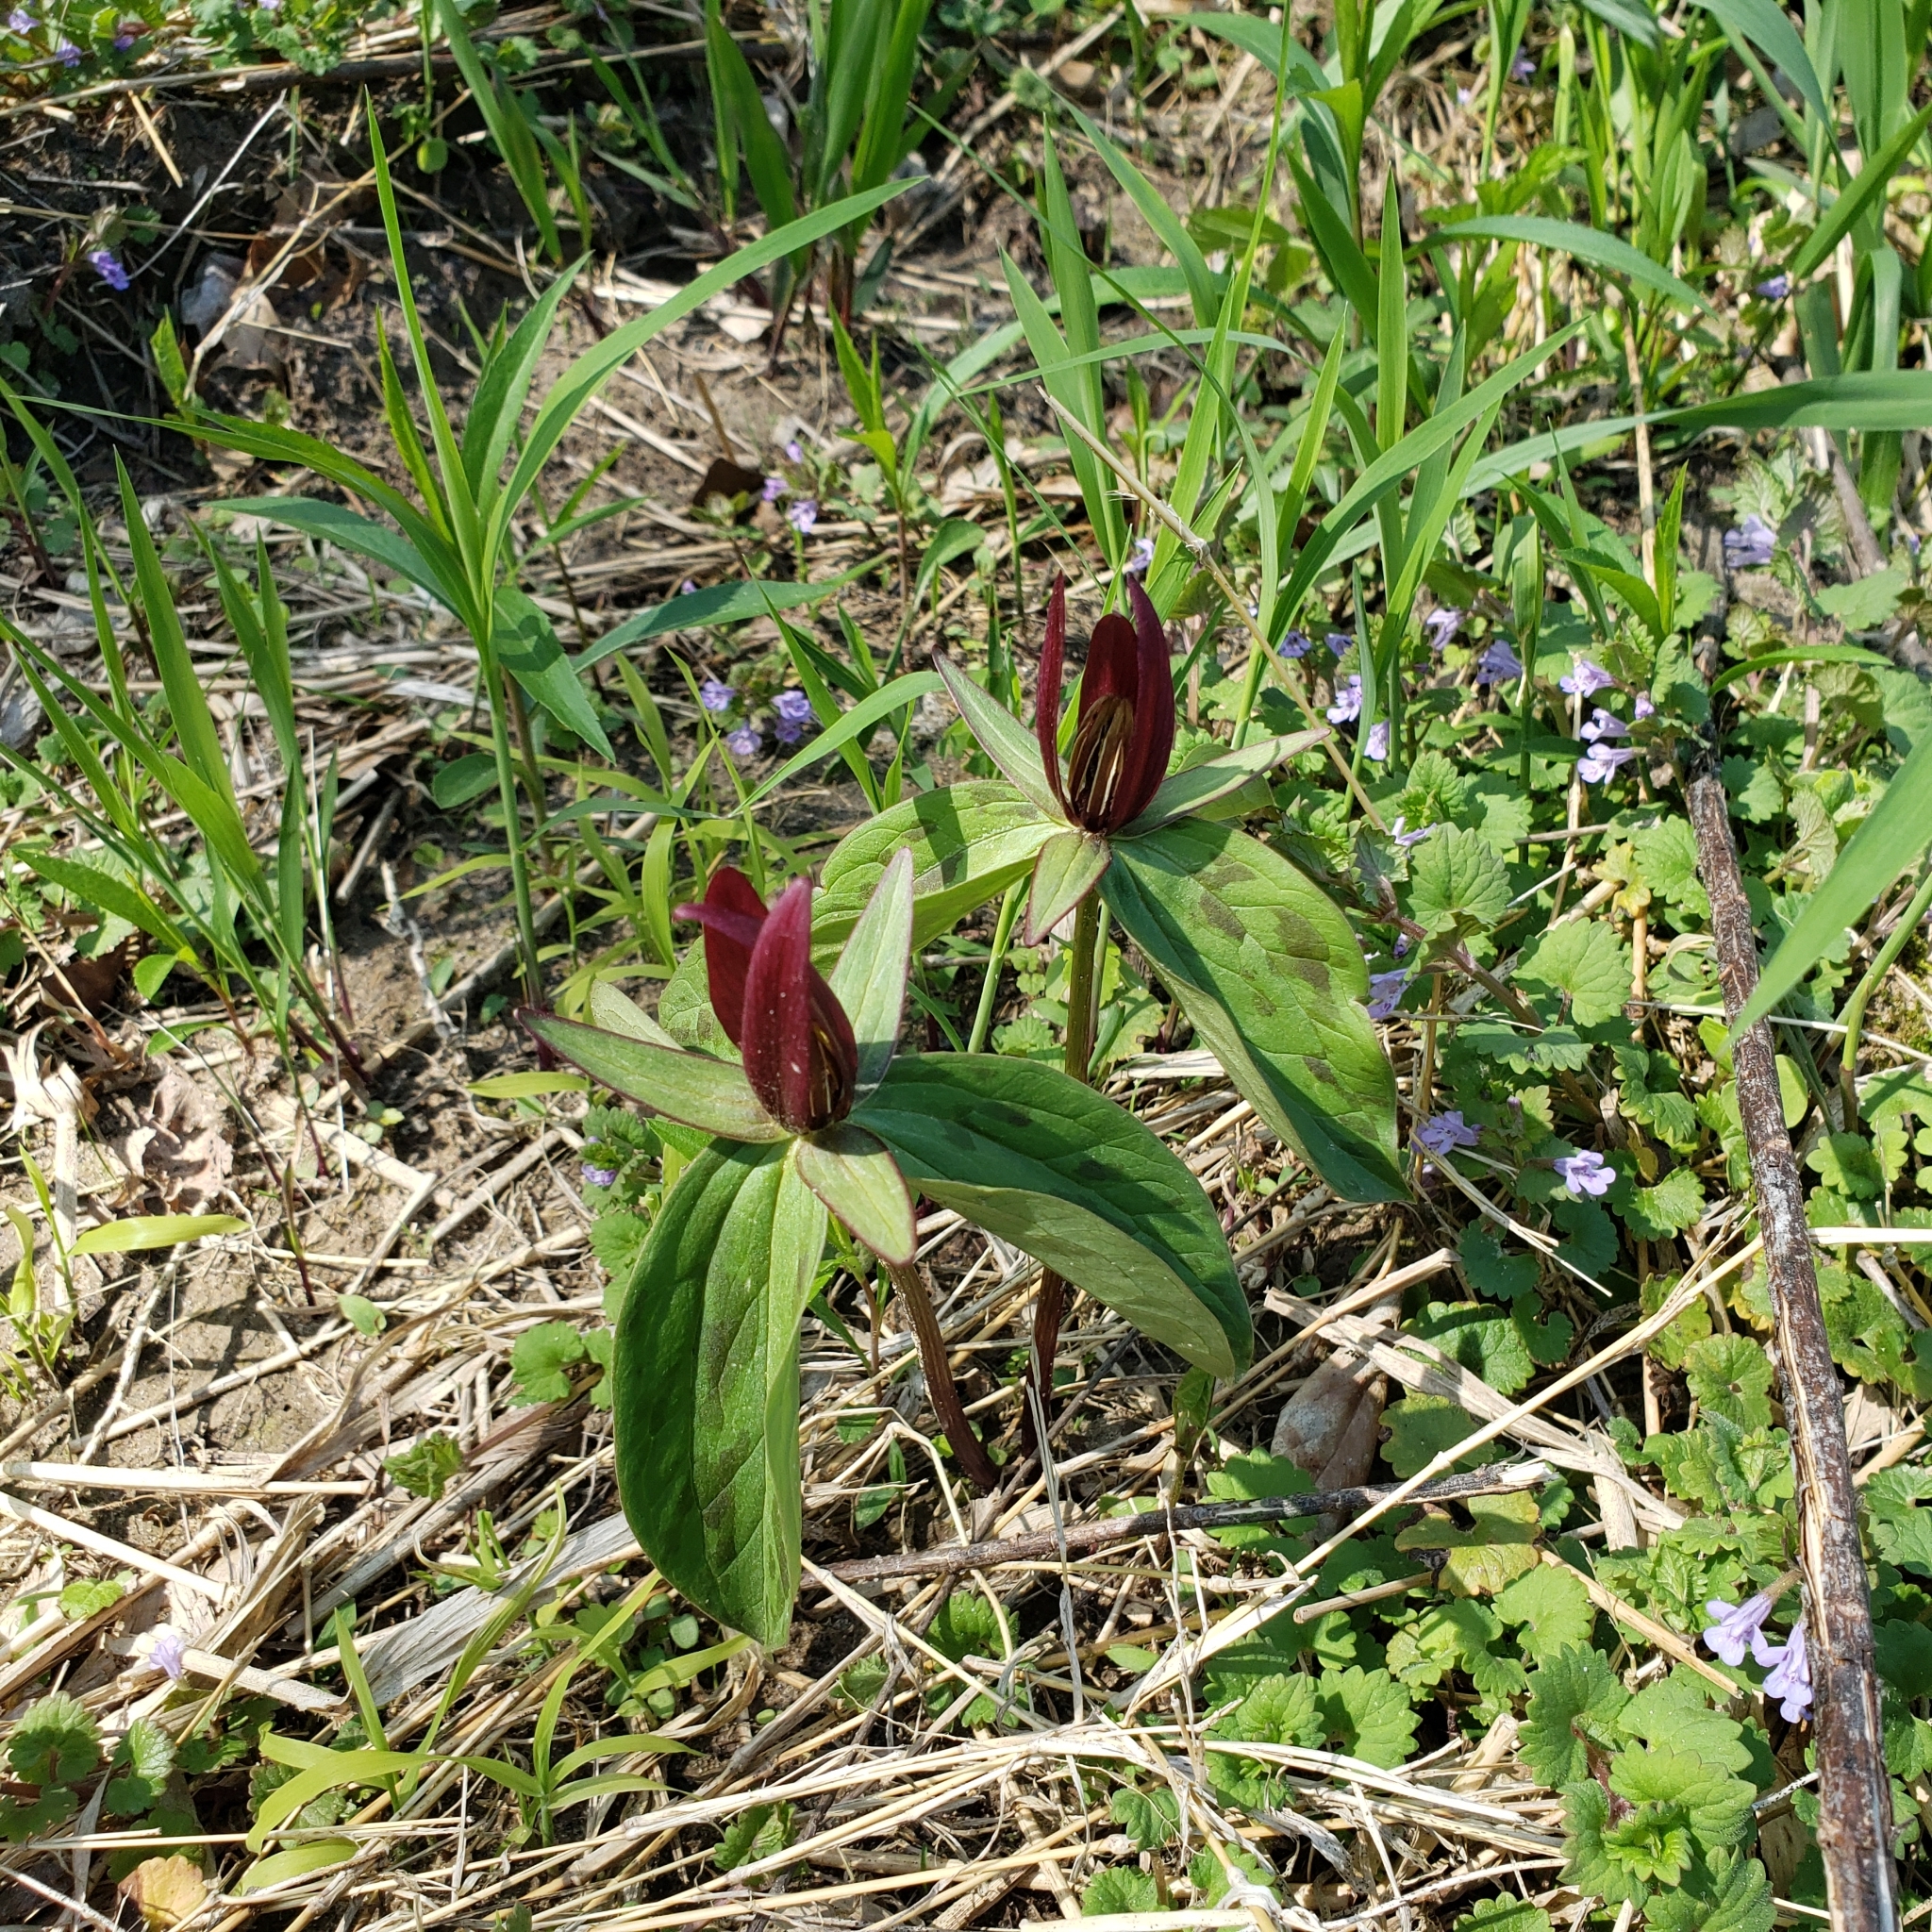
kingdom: Plantae
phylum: Tracheophyta
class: Liliopsida
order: Liliales
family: Melanthiaceae
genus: Trillium
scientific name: Trillium sessile
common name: Sessile trillium
